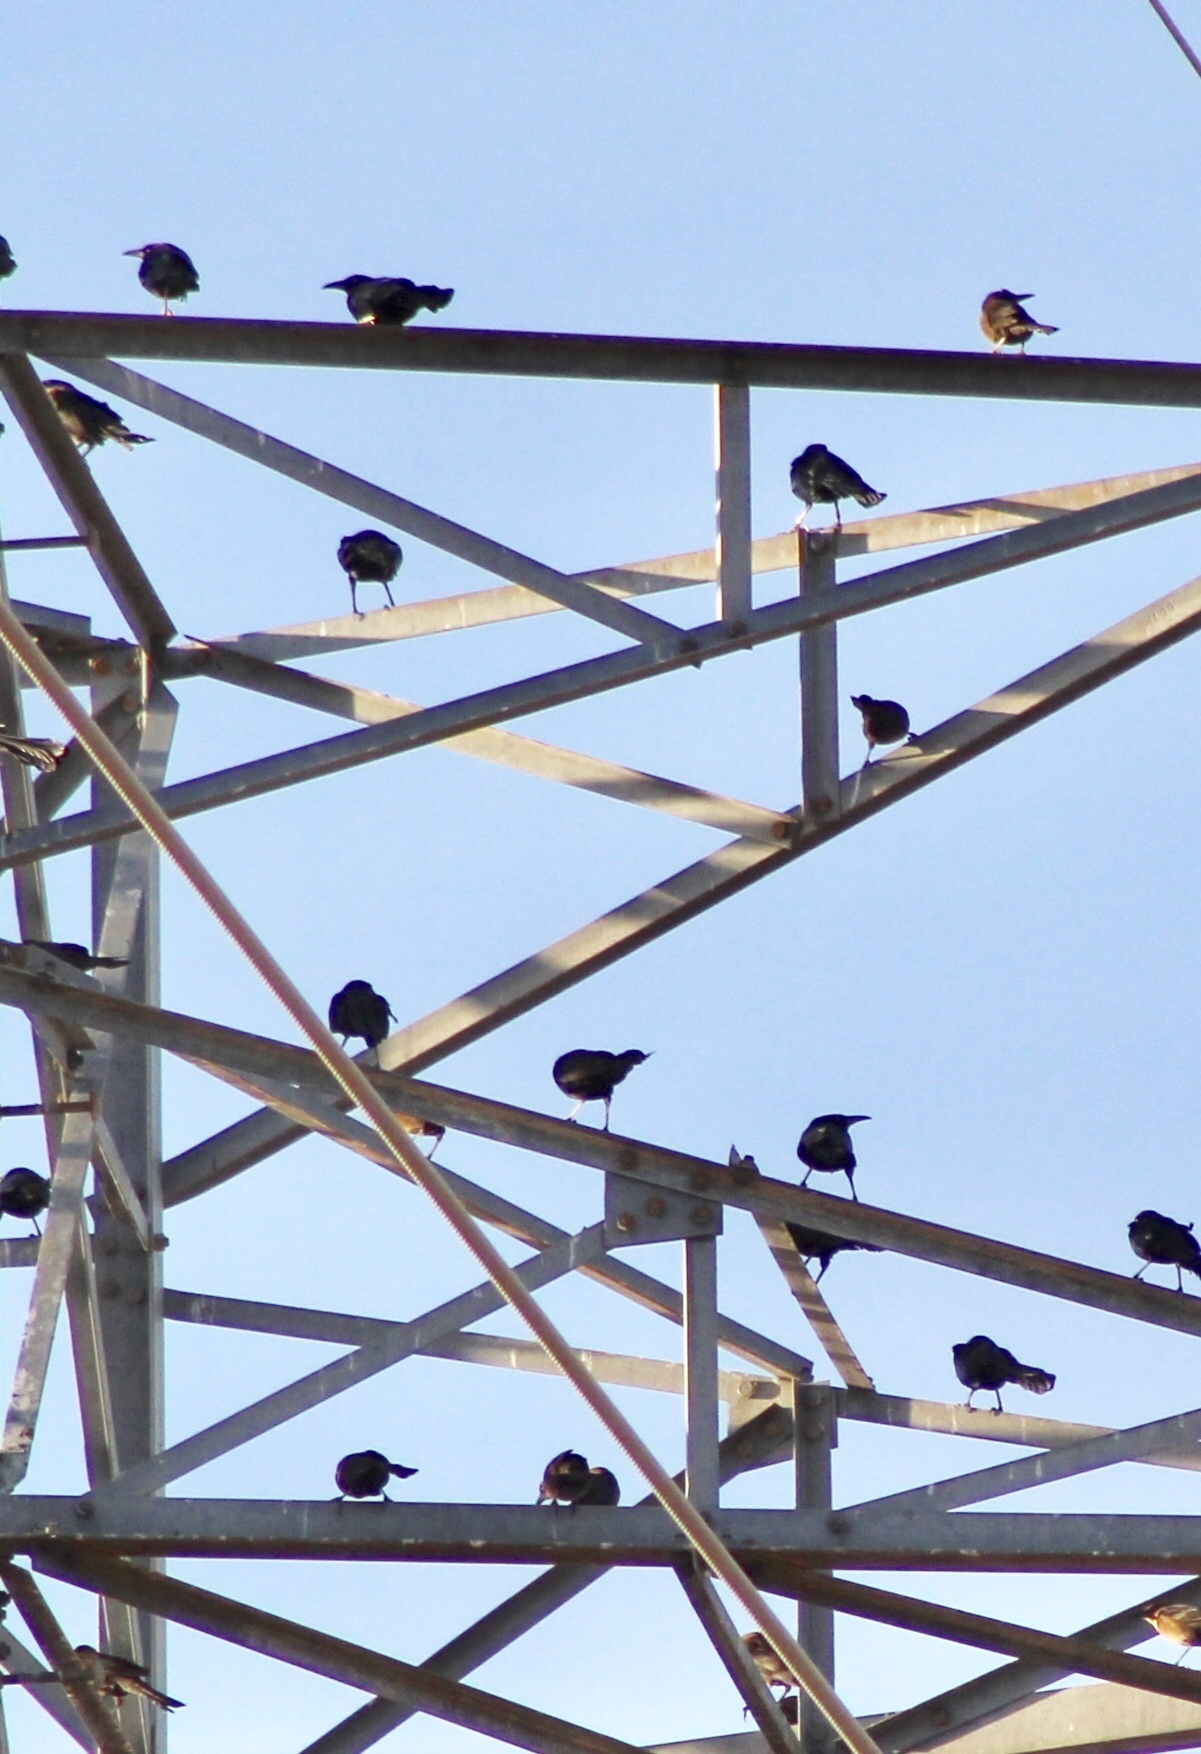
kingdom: Animalia
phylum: Chordata
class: Aves
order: Passeriformes
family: Icteridae
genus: Quiscalus
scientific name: Quiscalus mexicanus
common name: Great-tailed grackle
